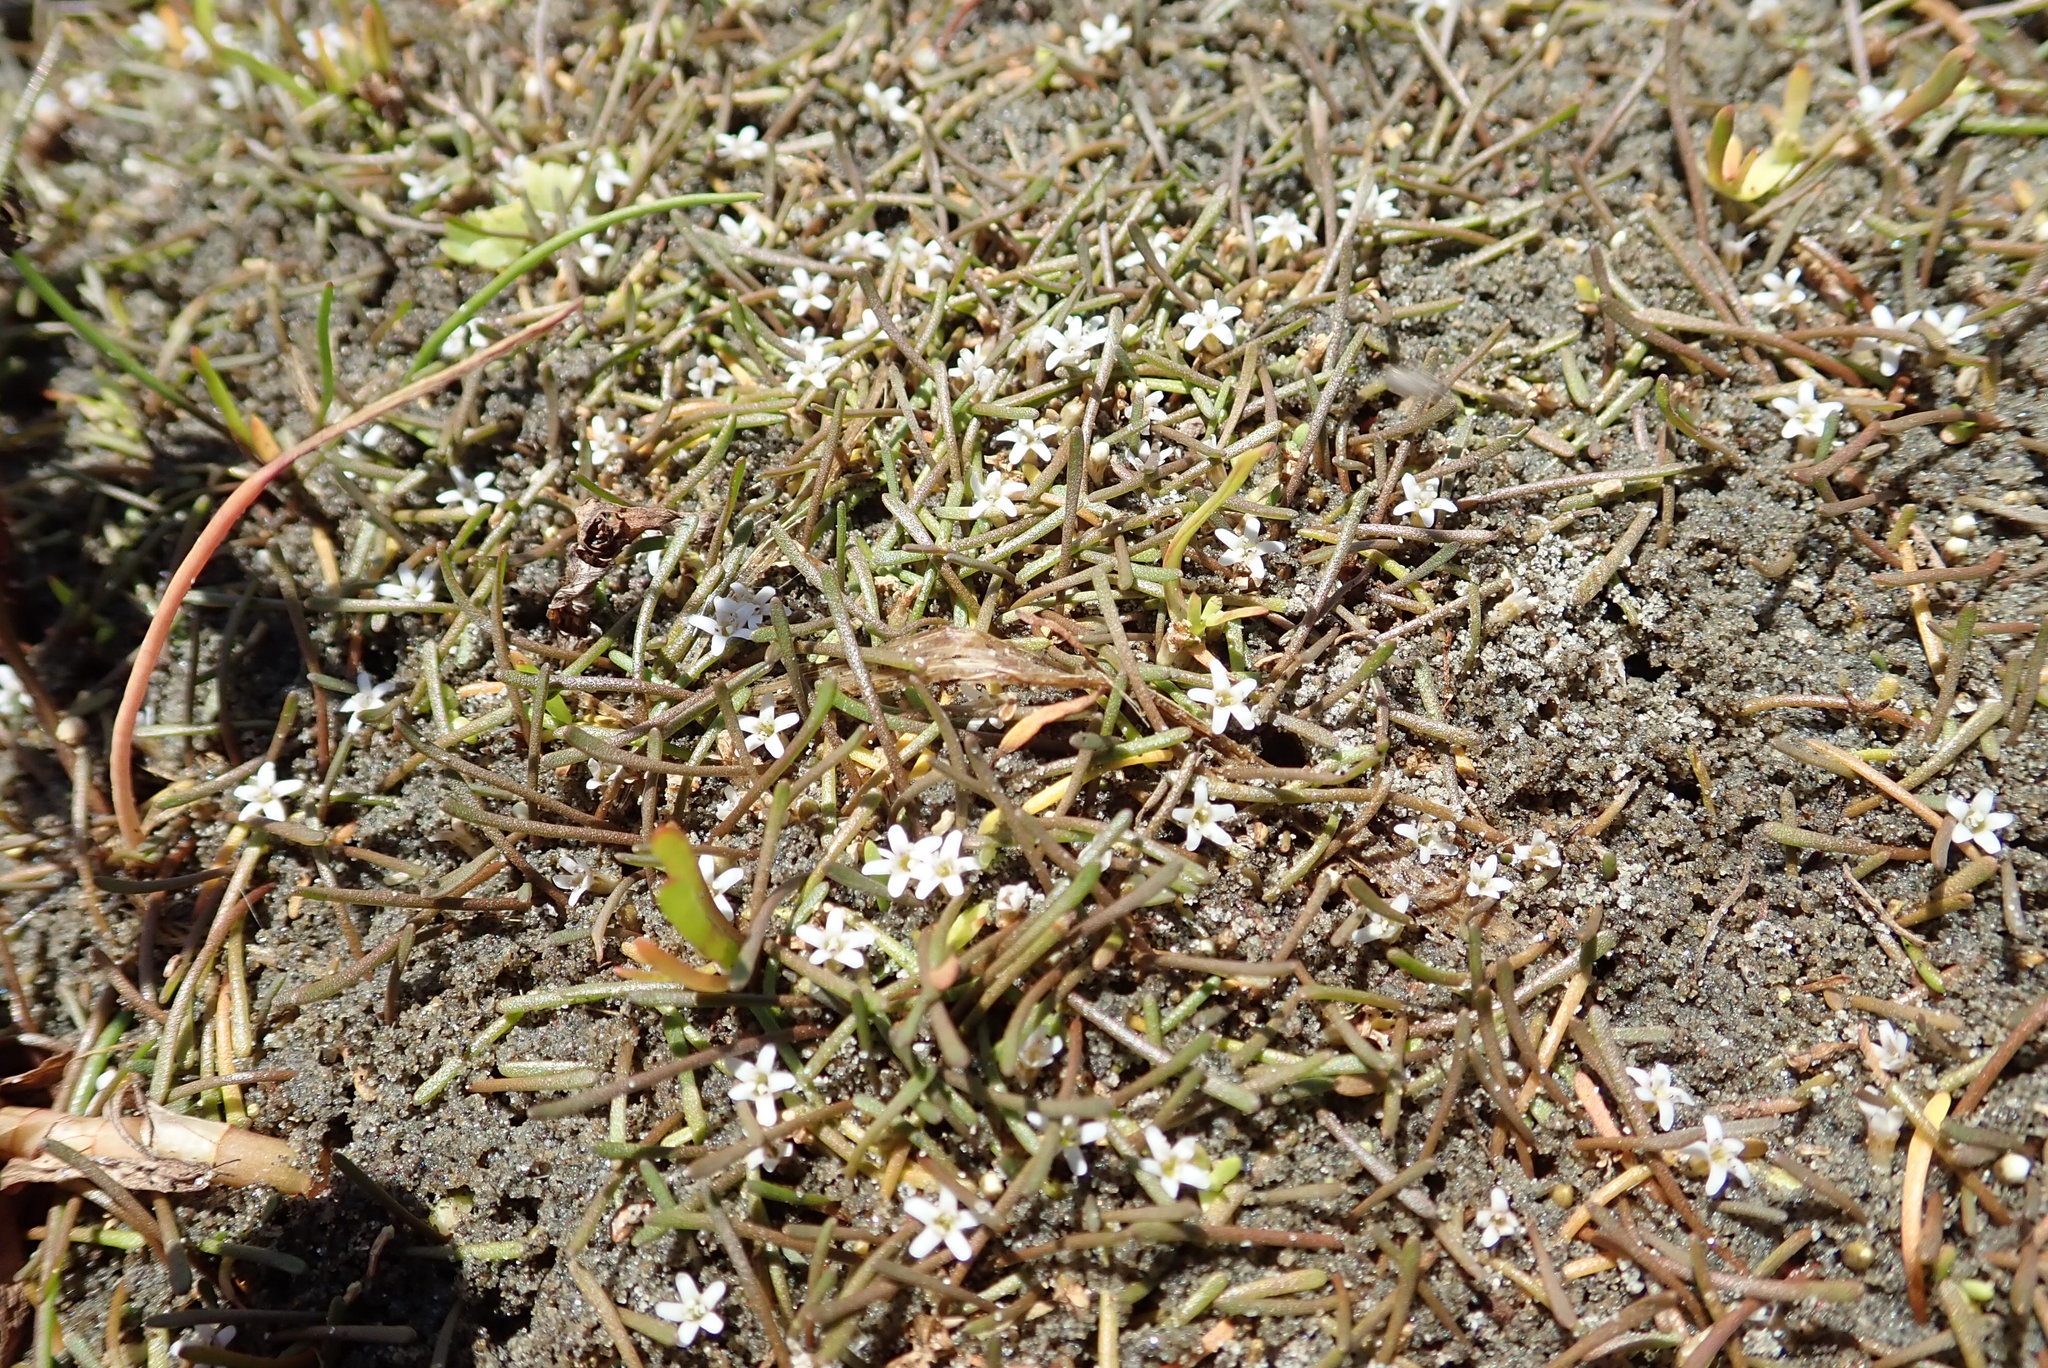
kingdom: Plantae
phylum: Tracheophyta
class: Magnoliopsida
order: Lamiales
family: Scrophulariaceae
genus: Limosella
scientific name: Limosella australis
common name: Welsh mudwort
